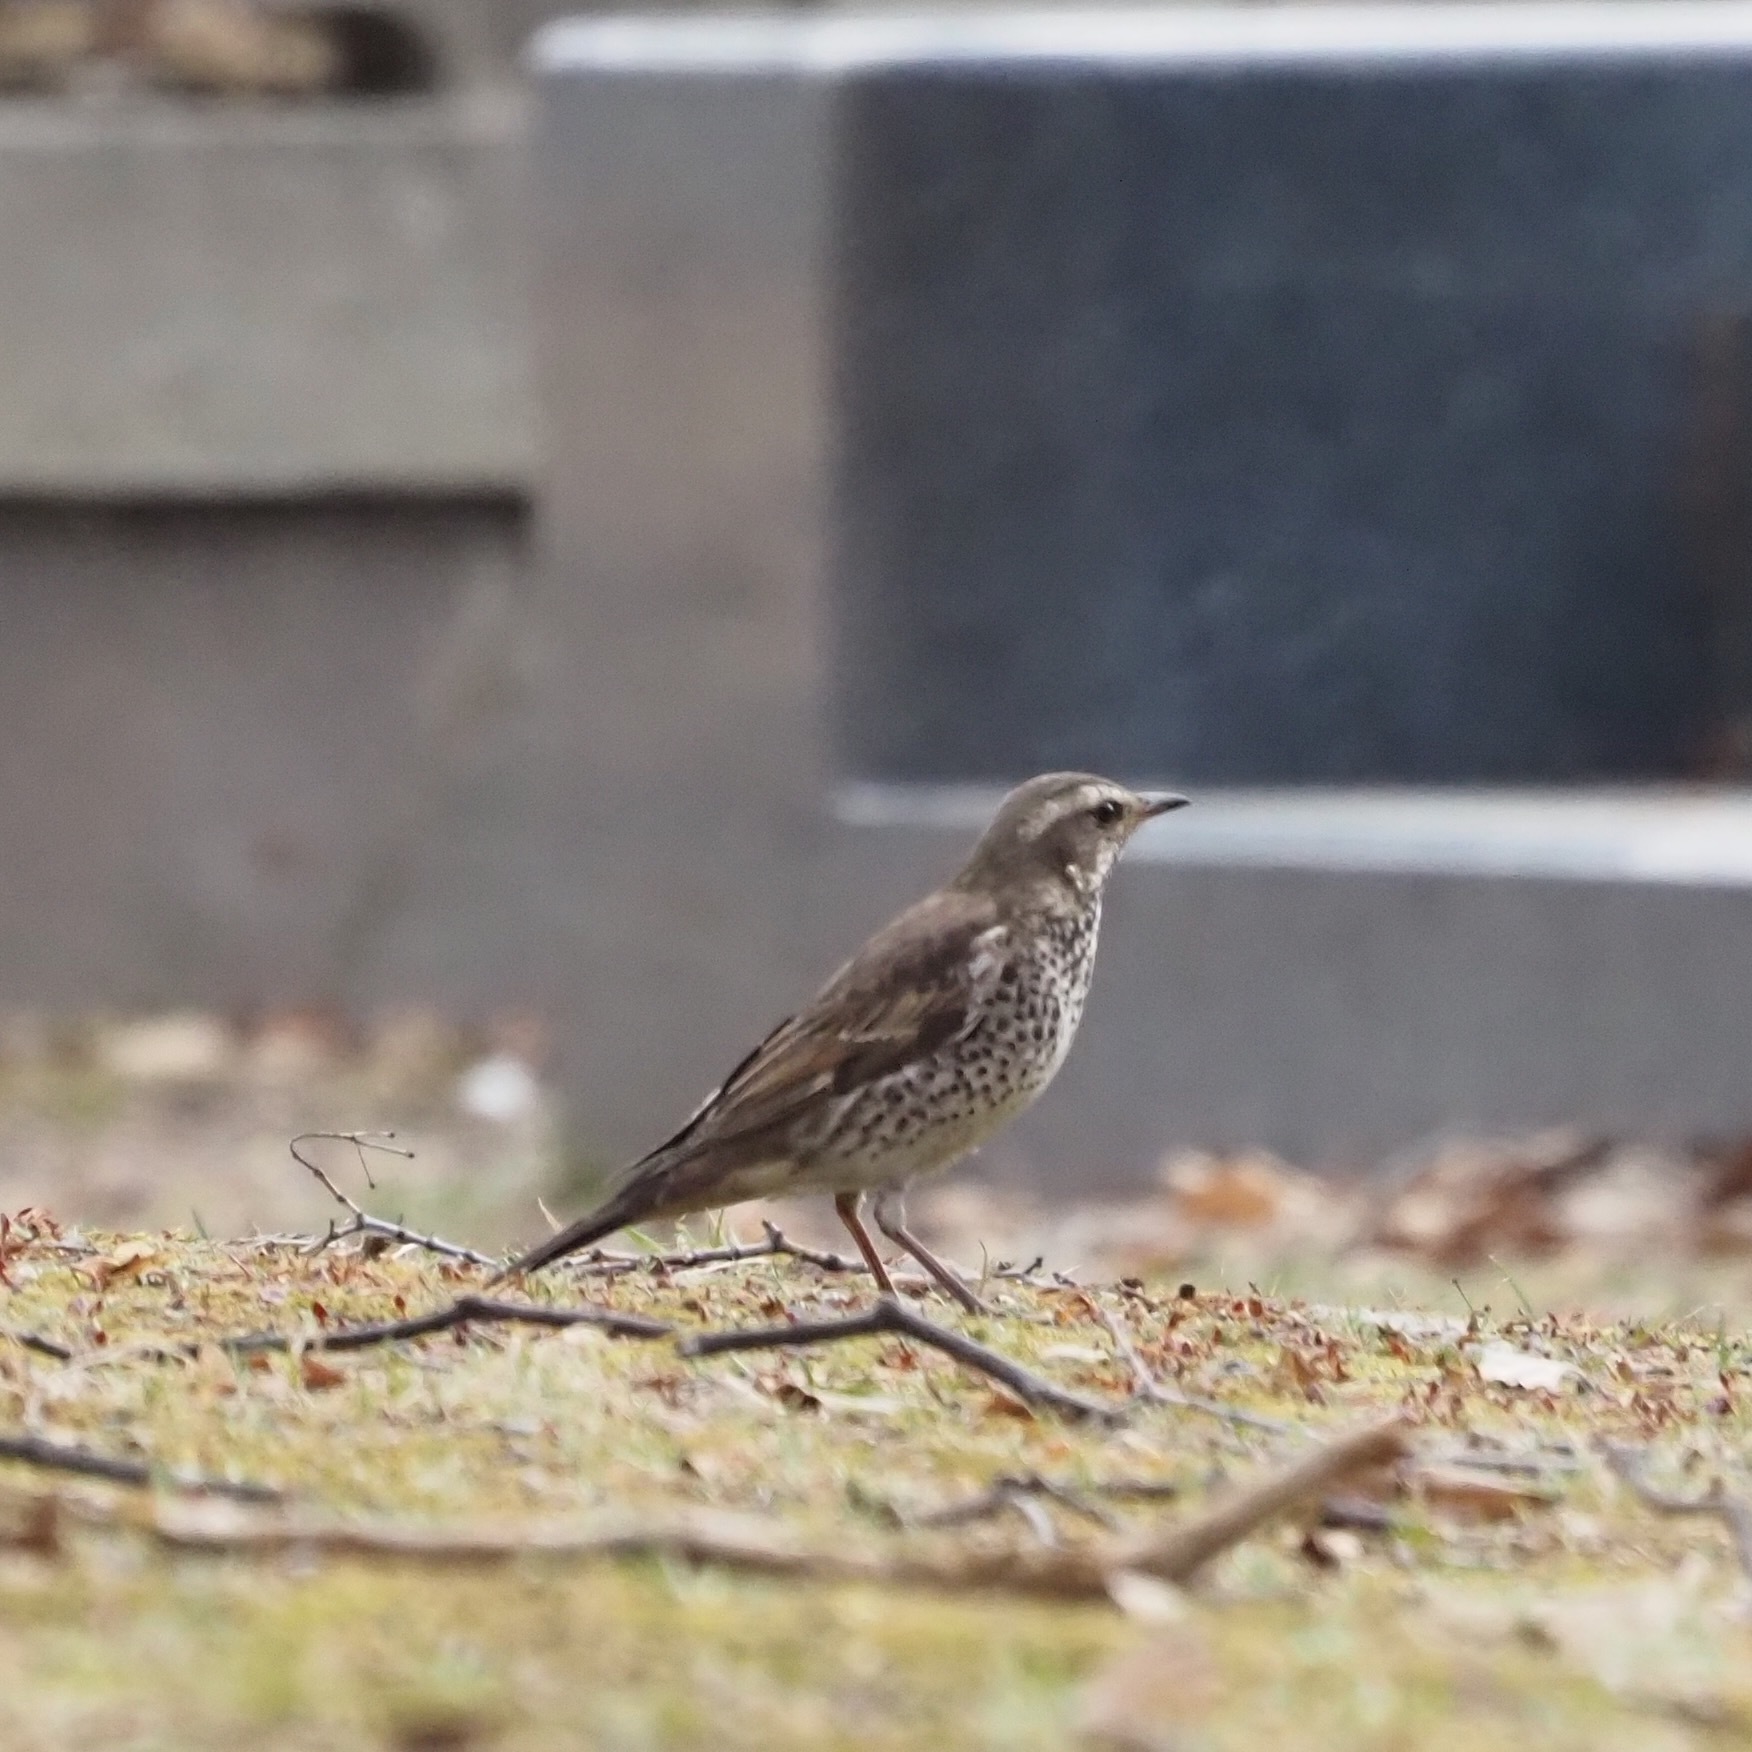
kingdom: Animalia
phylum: Chordata
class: Aves
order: Passeriformes
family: Turdidae
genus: Turdus
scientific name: Turdus eunomus
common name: Dusky thrush
